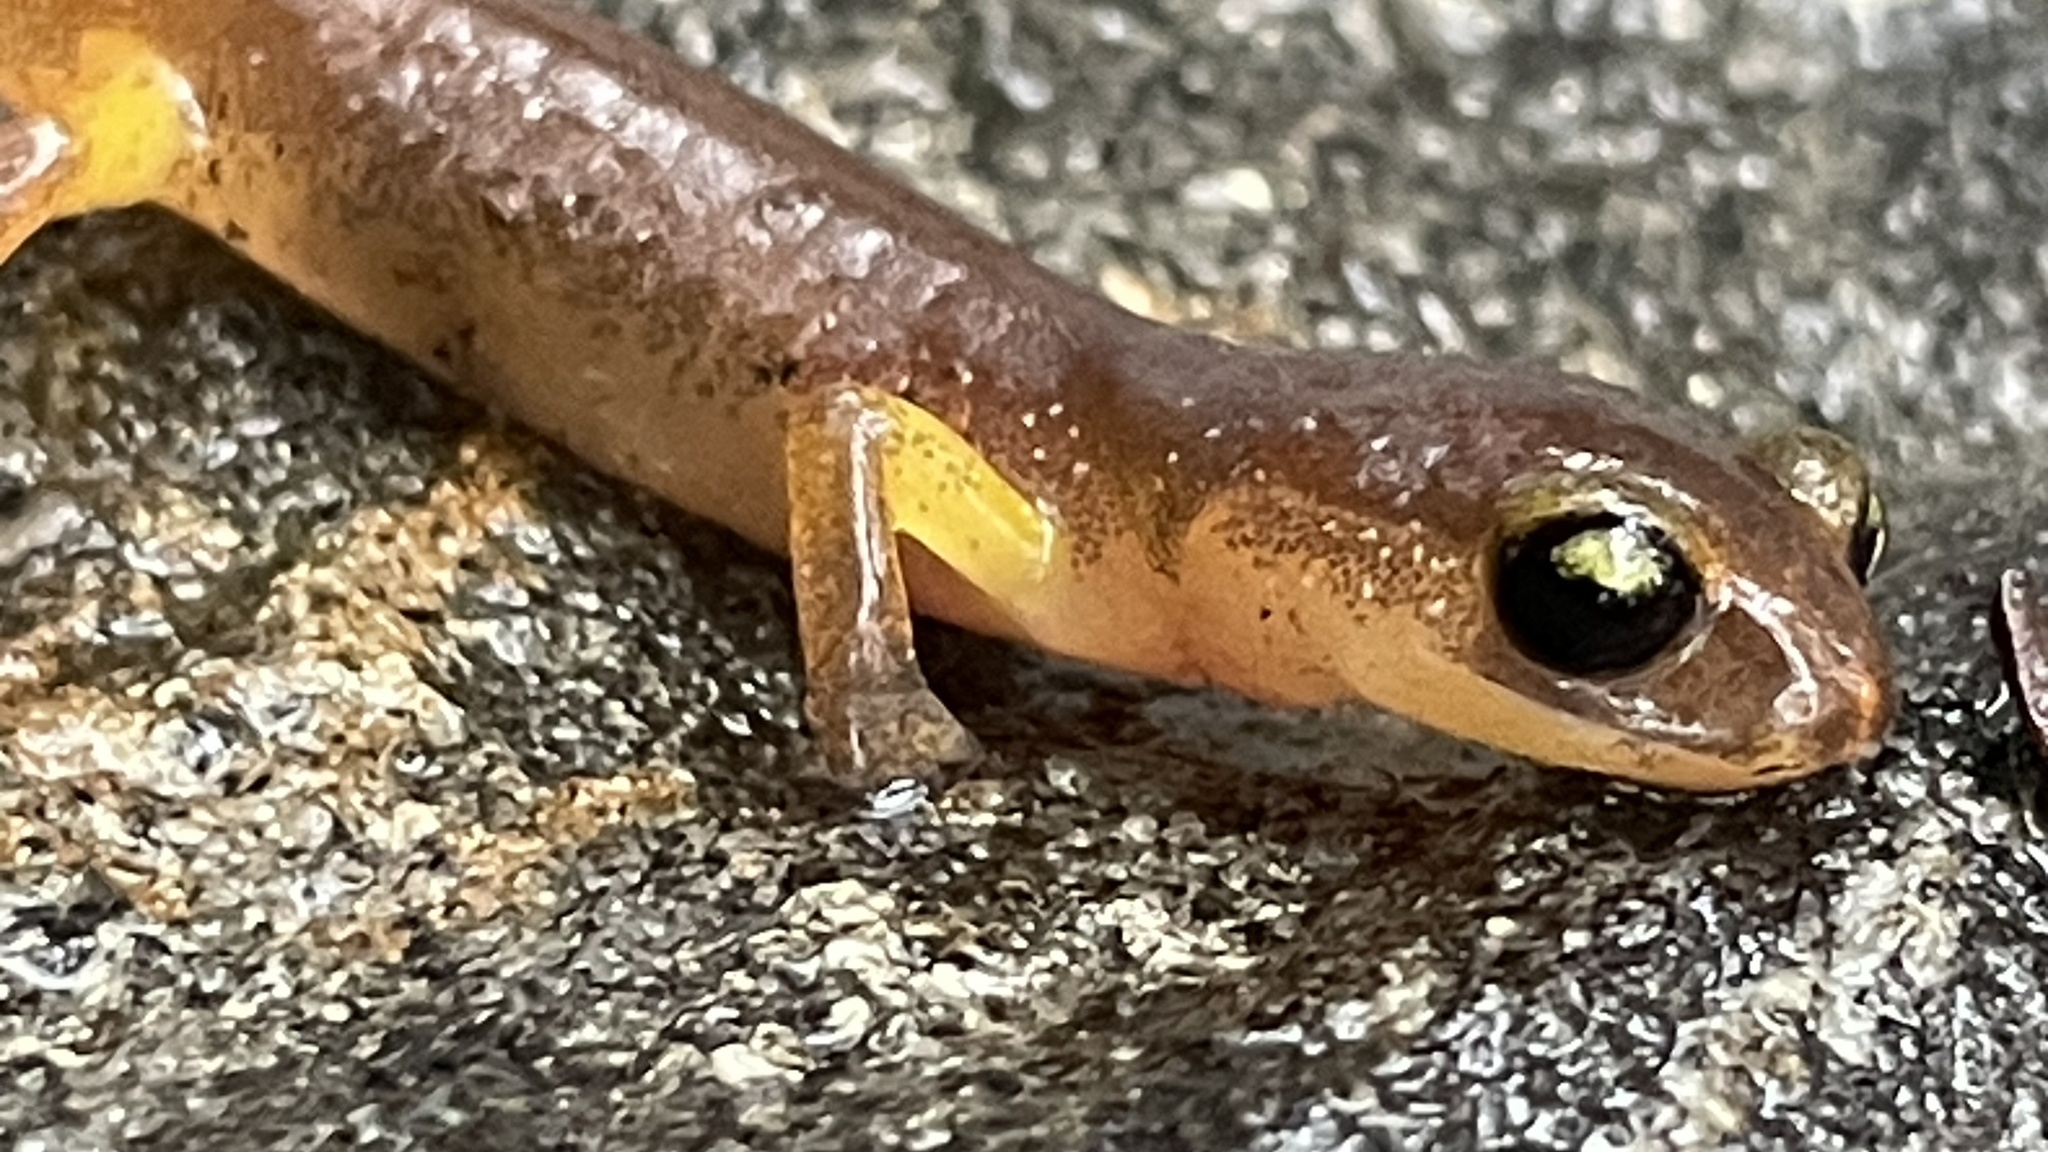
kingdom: Animalia
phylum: Chordata
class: Amphibia
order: Caudata
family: Plethodontidae
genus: Ensatina
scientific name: Ensatina eschscholtzii
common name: Ensatina
